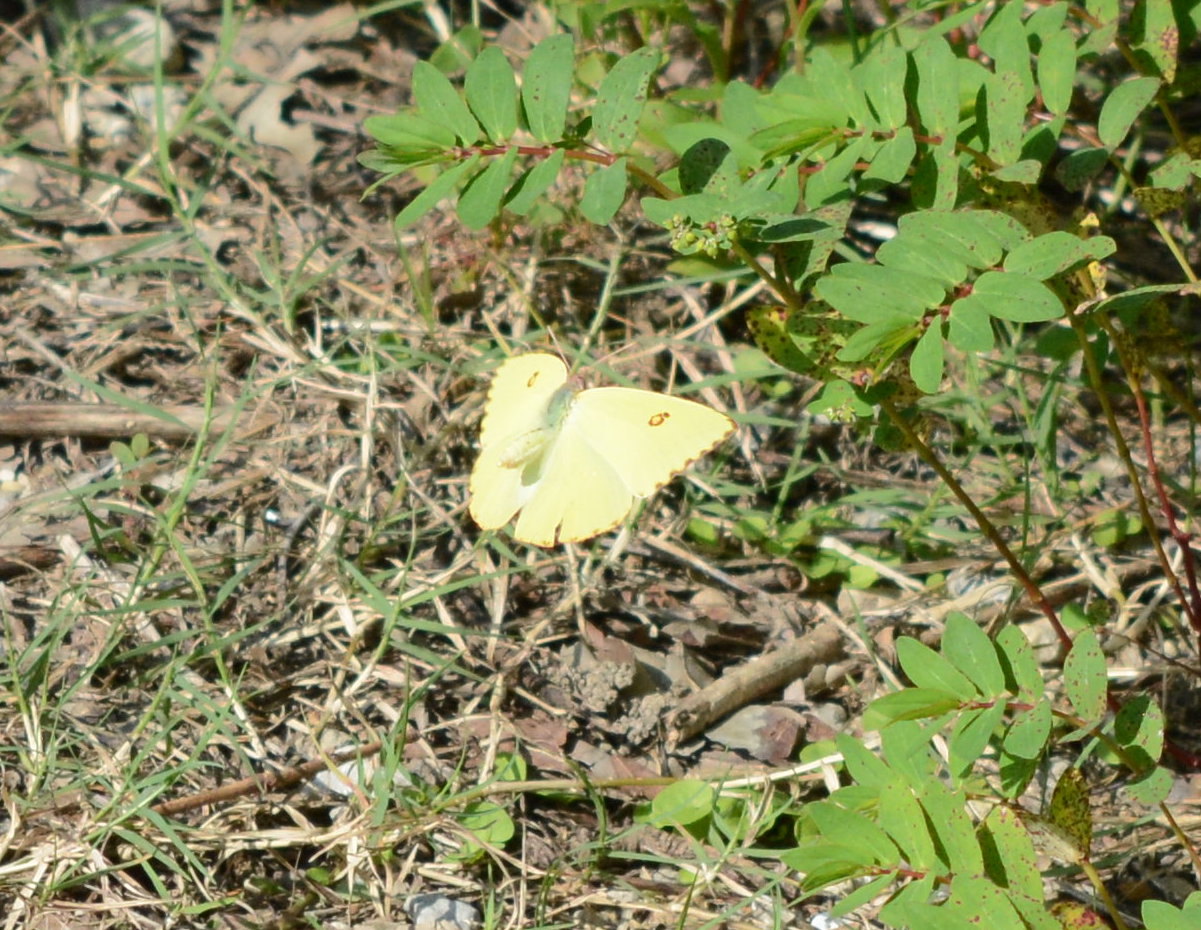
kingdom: Animalia
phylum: Arthropoda
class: Insecta
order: Lepidoptera
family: Pieridae
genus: Phoebis
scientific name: Phoebis sennae
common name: Cloudless sulphur
